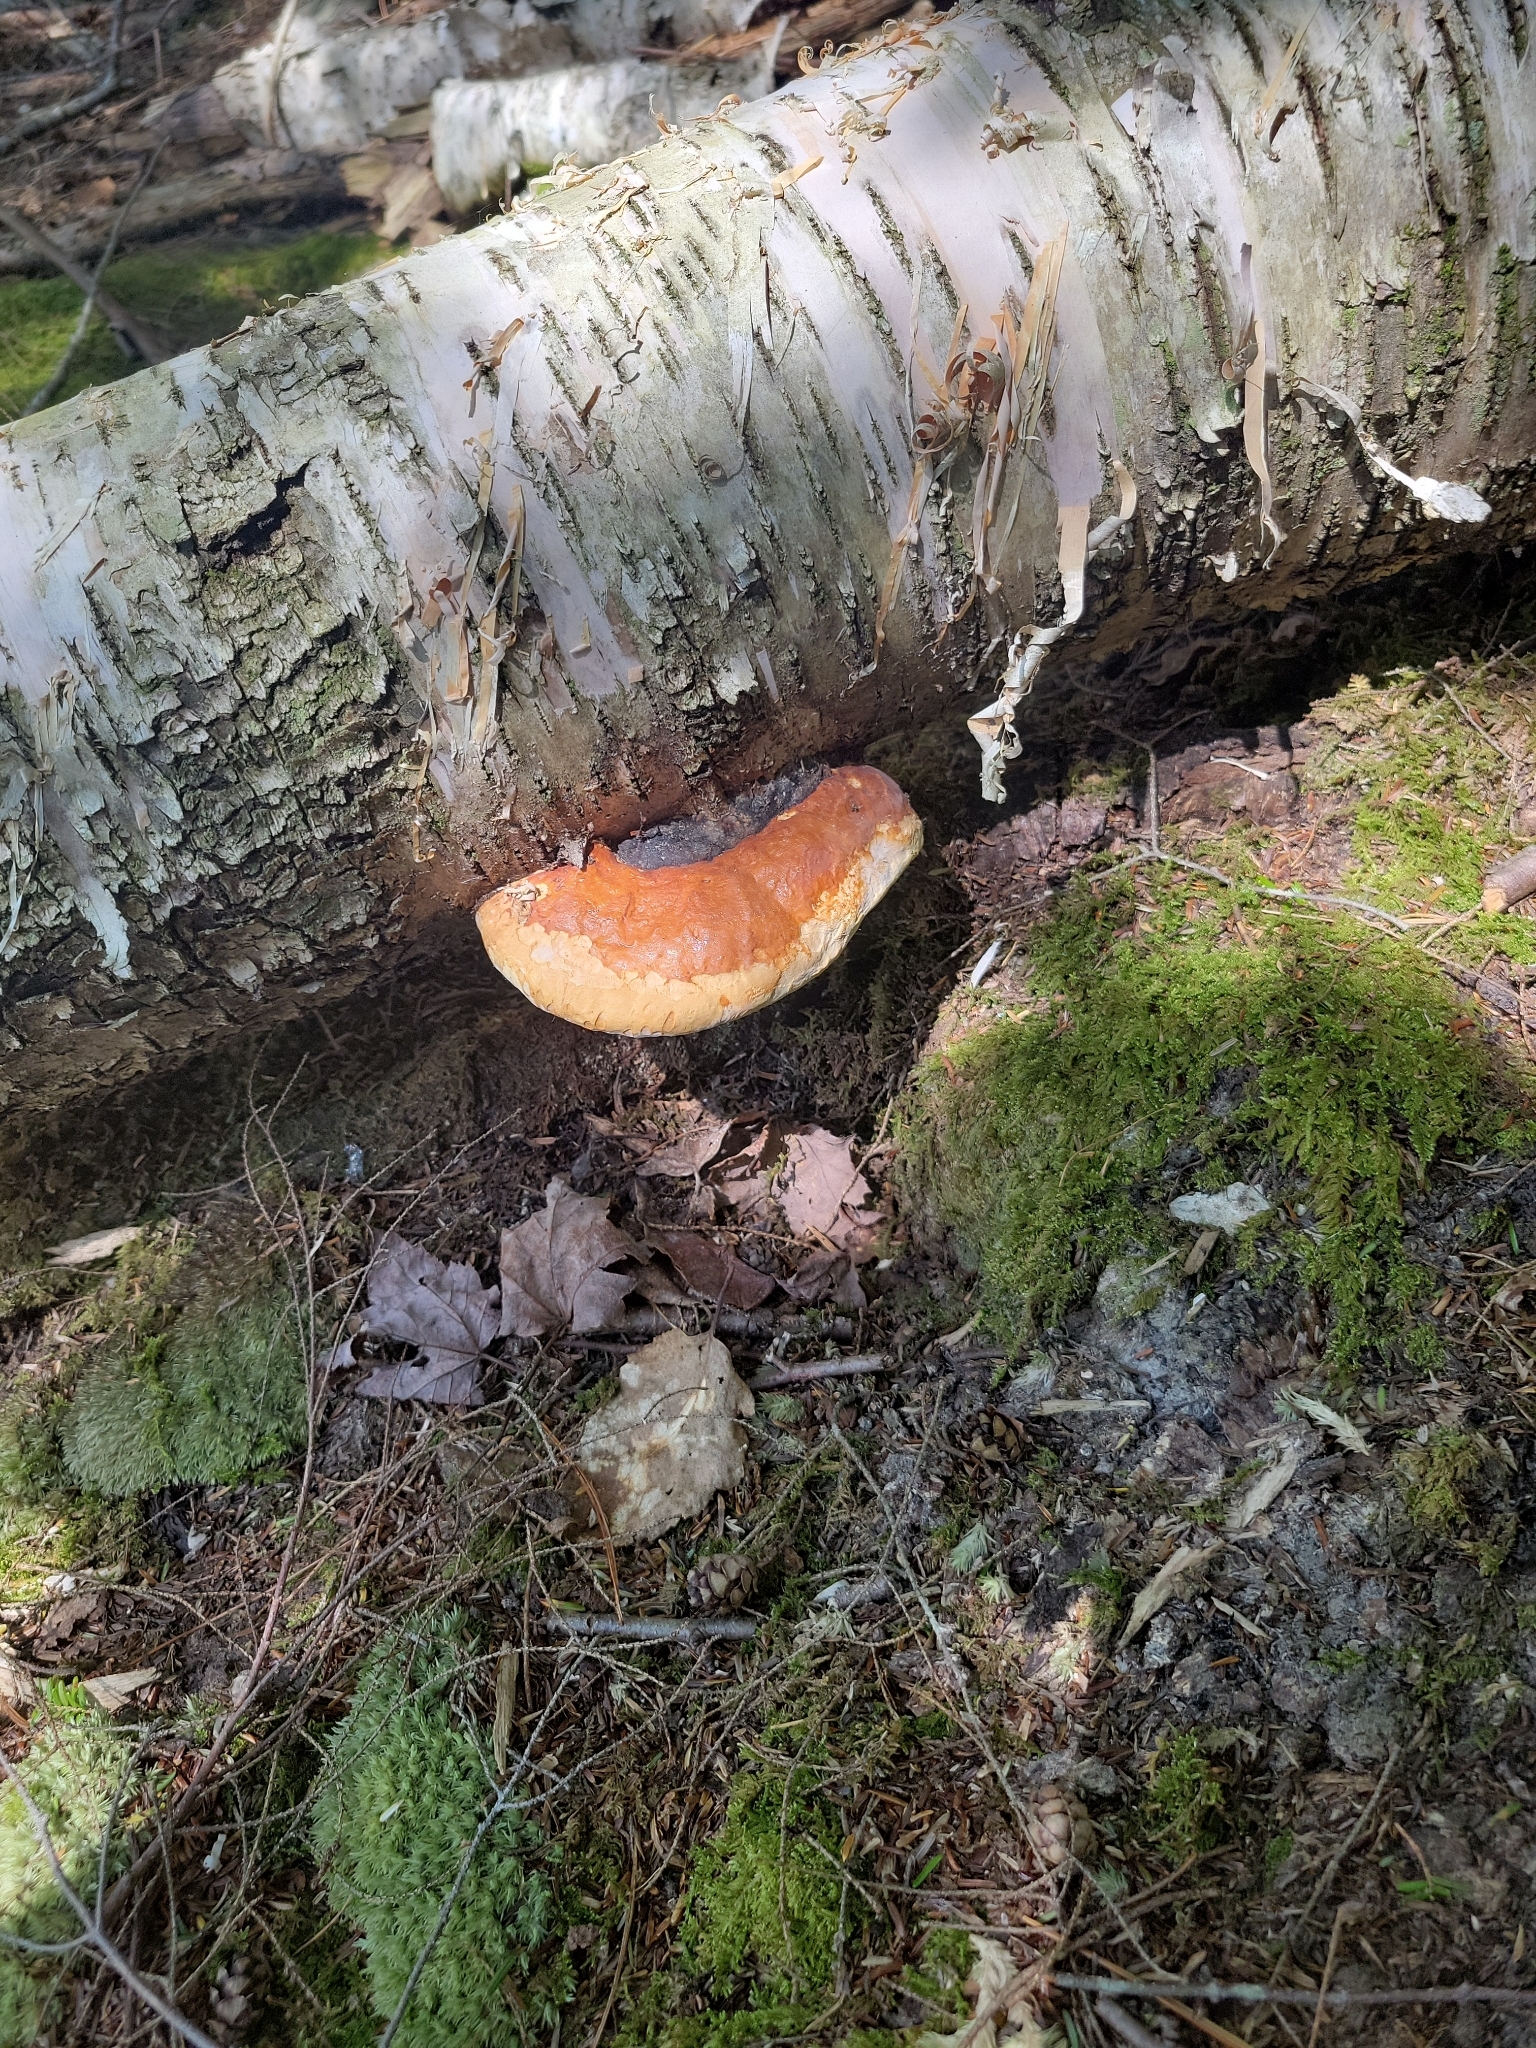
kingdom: Fungi
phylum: Basidiomycota
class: Agaricomycetes
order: Polyporales
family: Fomitopsidaceae
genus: Fomitopsis
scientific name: Fomitopsis mounceae
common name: Northern red belt
